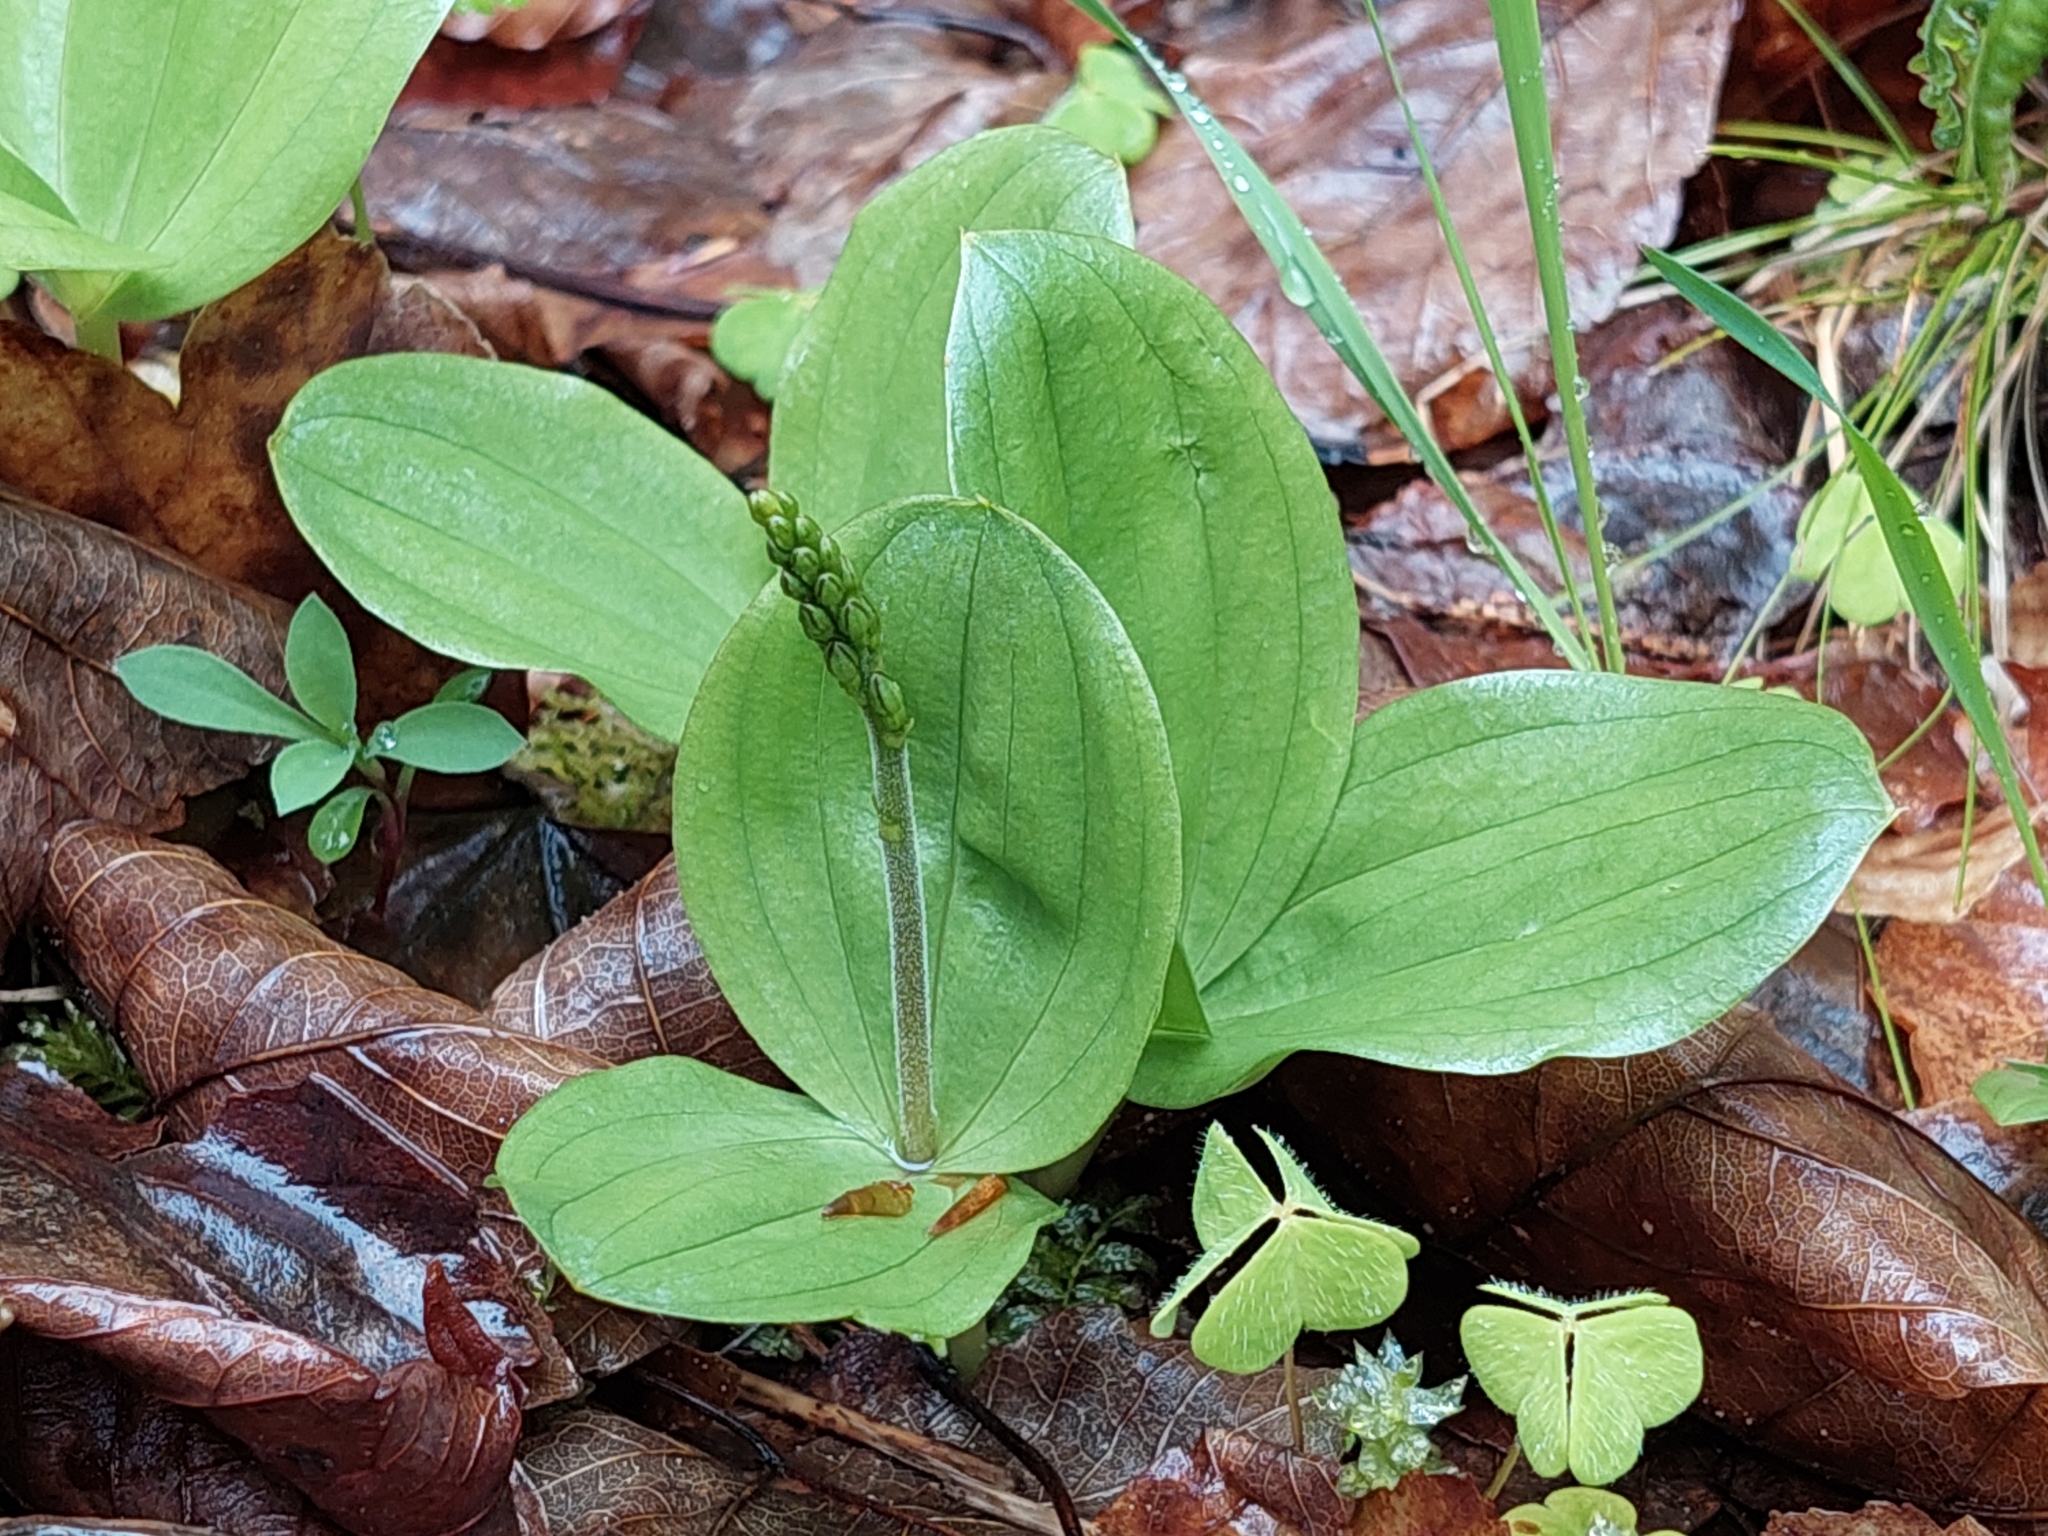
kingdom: Plantae
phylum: Tracheophyta
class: Liliopsida
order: Asparagales
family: Orchidaceae
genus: Neottia
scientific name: Neottia ovata
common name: Common twayblade
